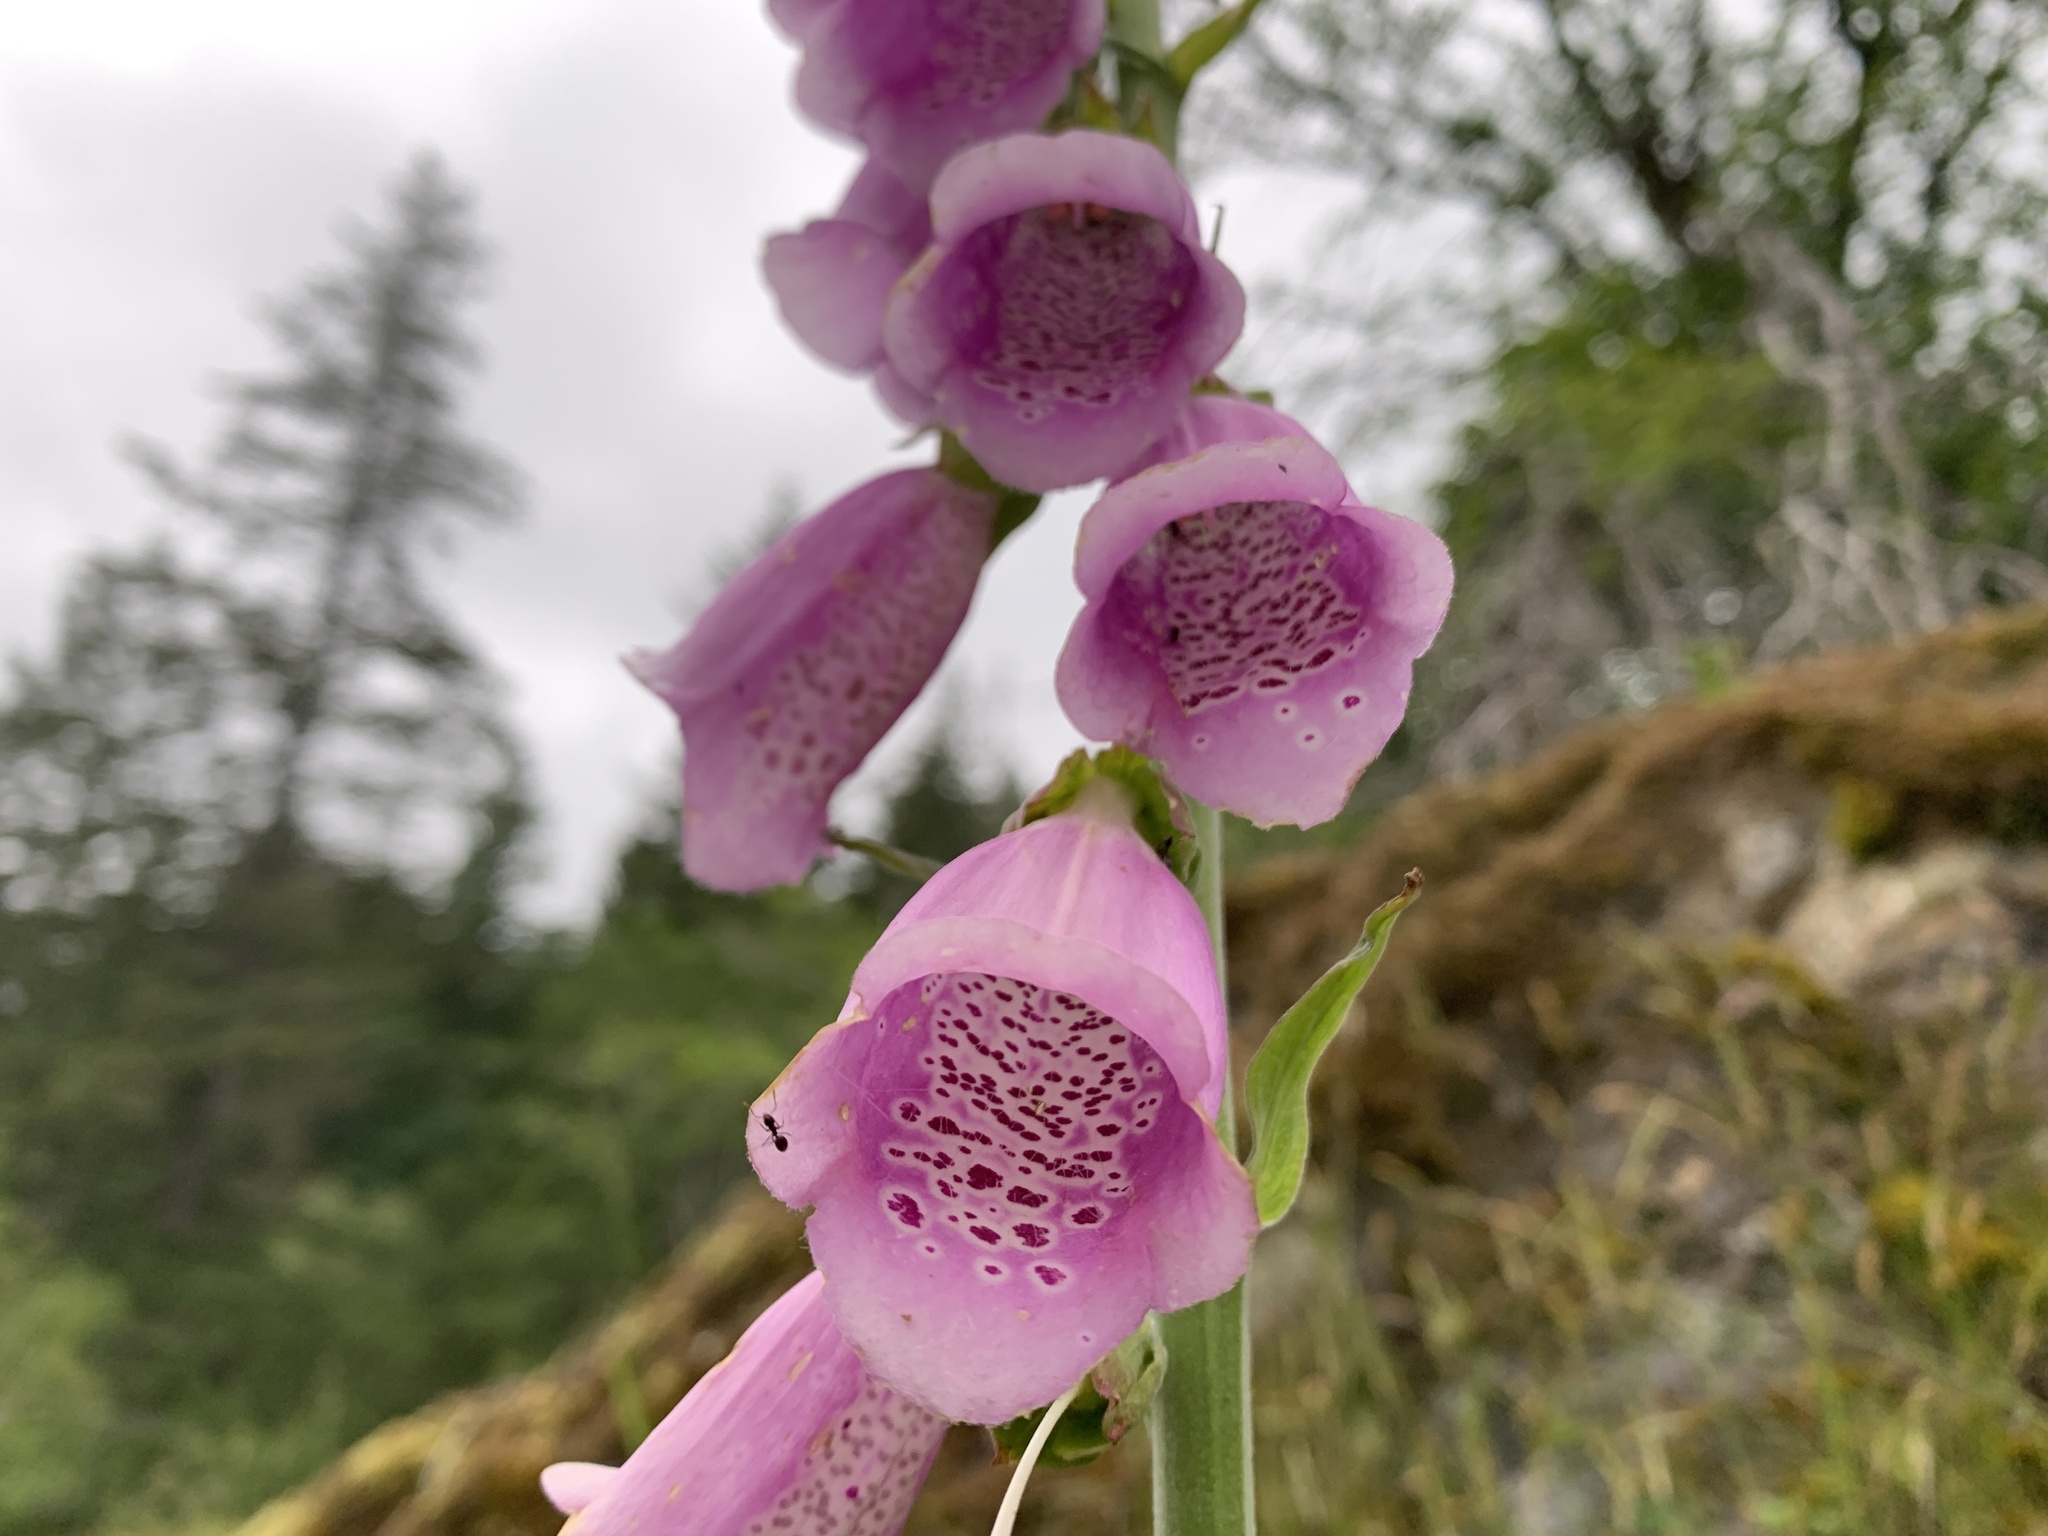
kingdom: Plantae
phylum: Tracheophyta
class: Magnoliopsida
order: Lamiales
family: Plantaginaceae
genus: Digitalis
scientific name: Digitalis purpurea
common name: Foxglove
